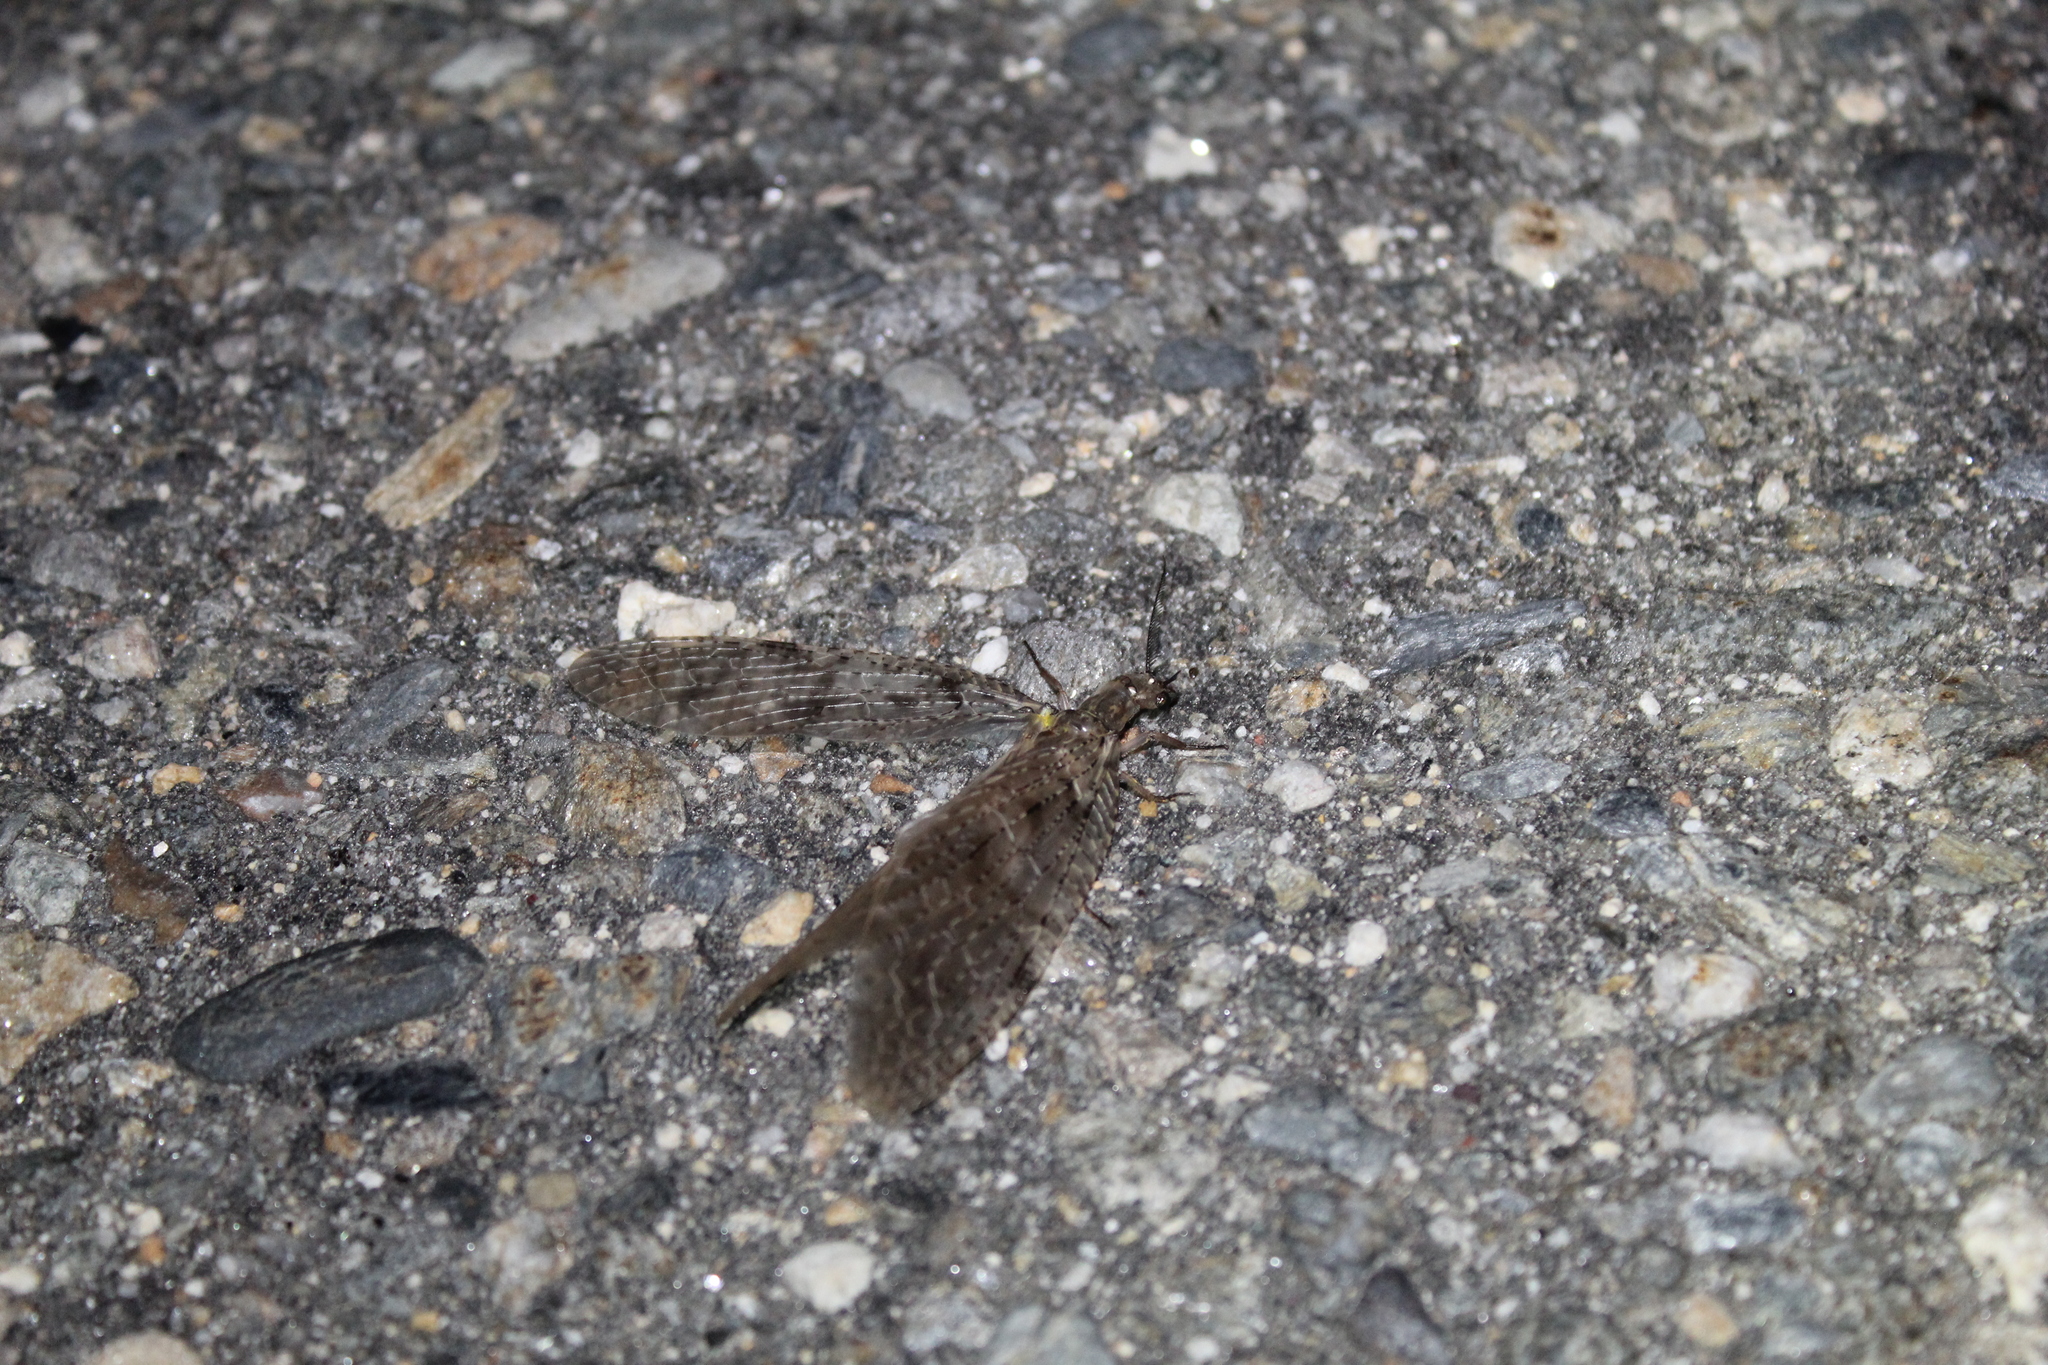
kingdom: Animalia
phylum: Arthropoda
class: Insecta
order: Megaloptera
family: Corydalidae
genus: Chauliodes
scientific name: Chauliodes pectinicornis
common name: Summer fishfly
